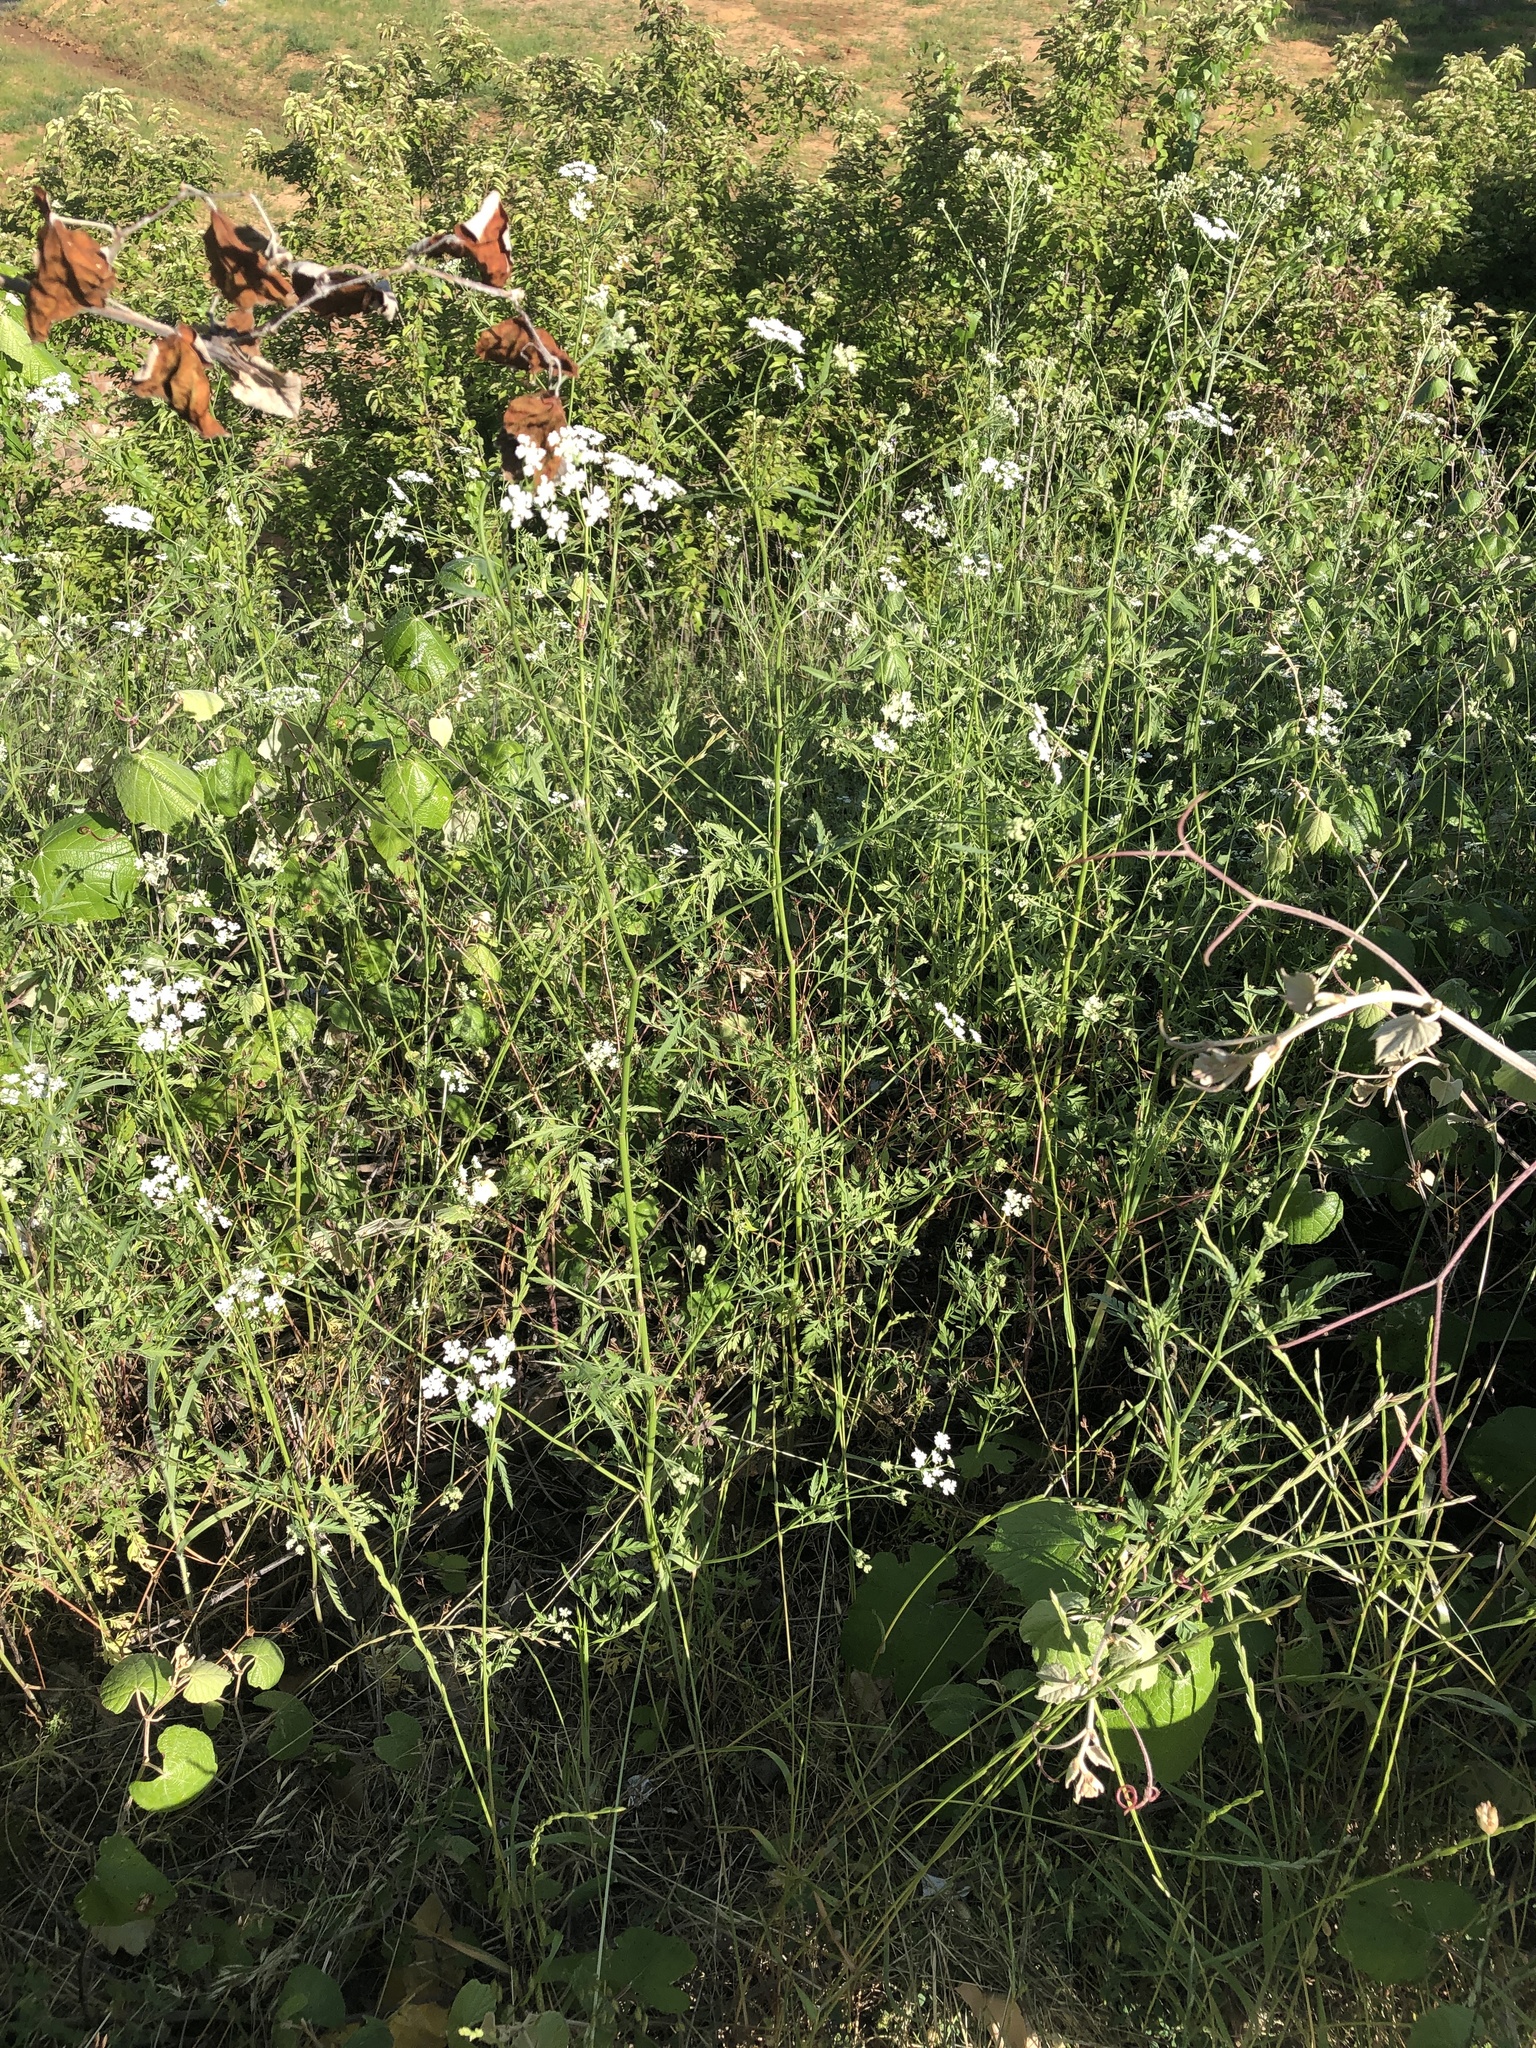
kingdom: Plantae
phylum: Tracheophyta
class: Magnoliopsida
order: Apiales
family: Apiaceae
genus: Torilis
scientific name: Torilis arvensis
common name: Spreading hedge-parsley
